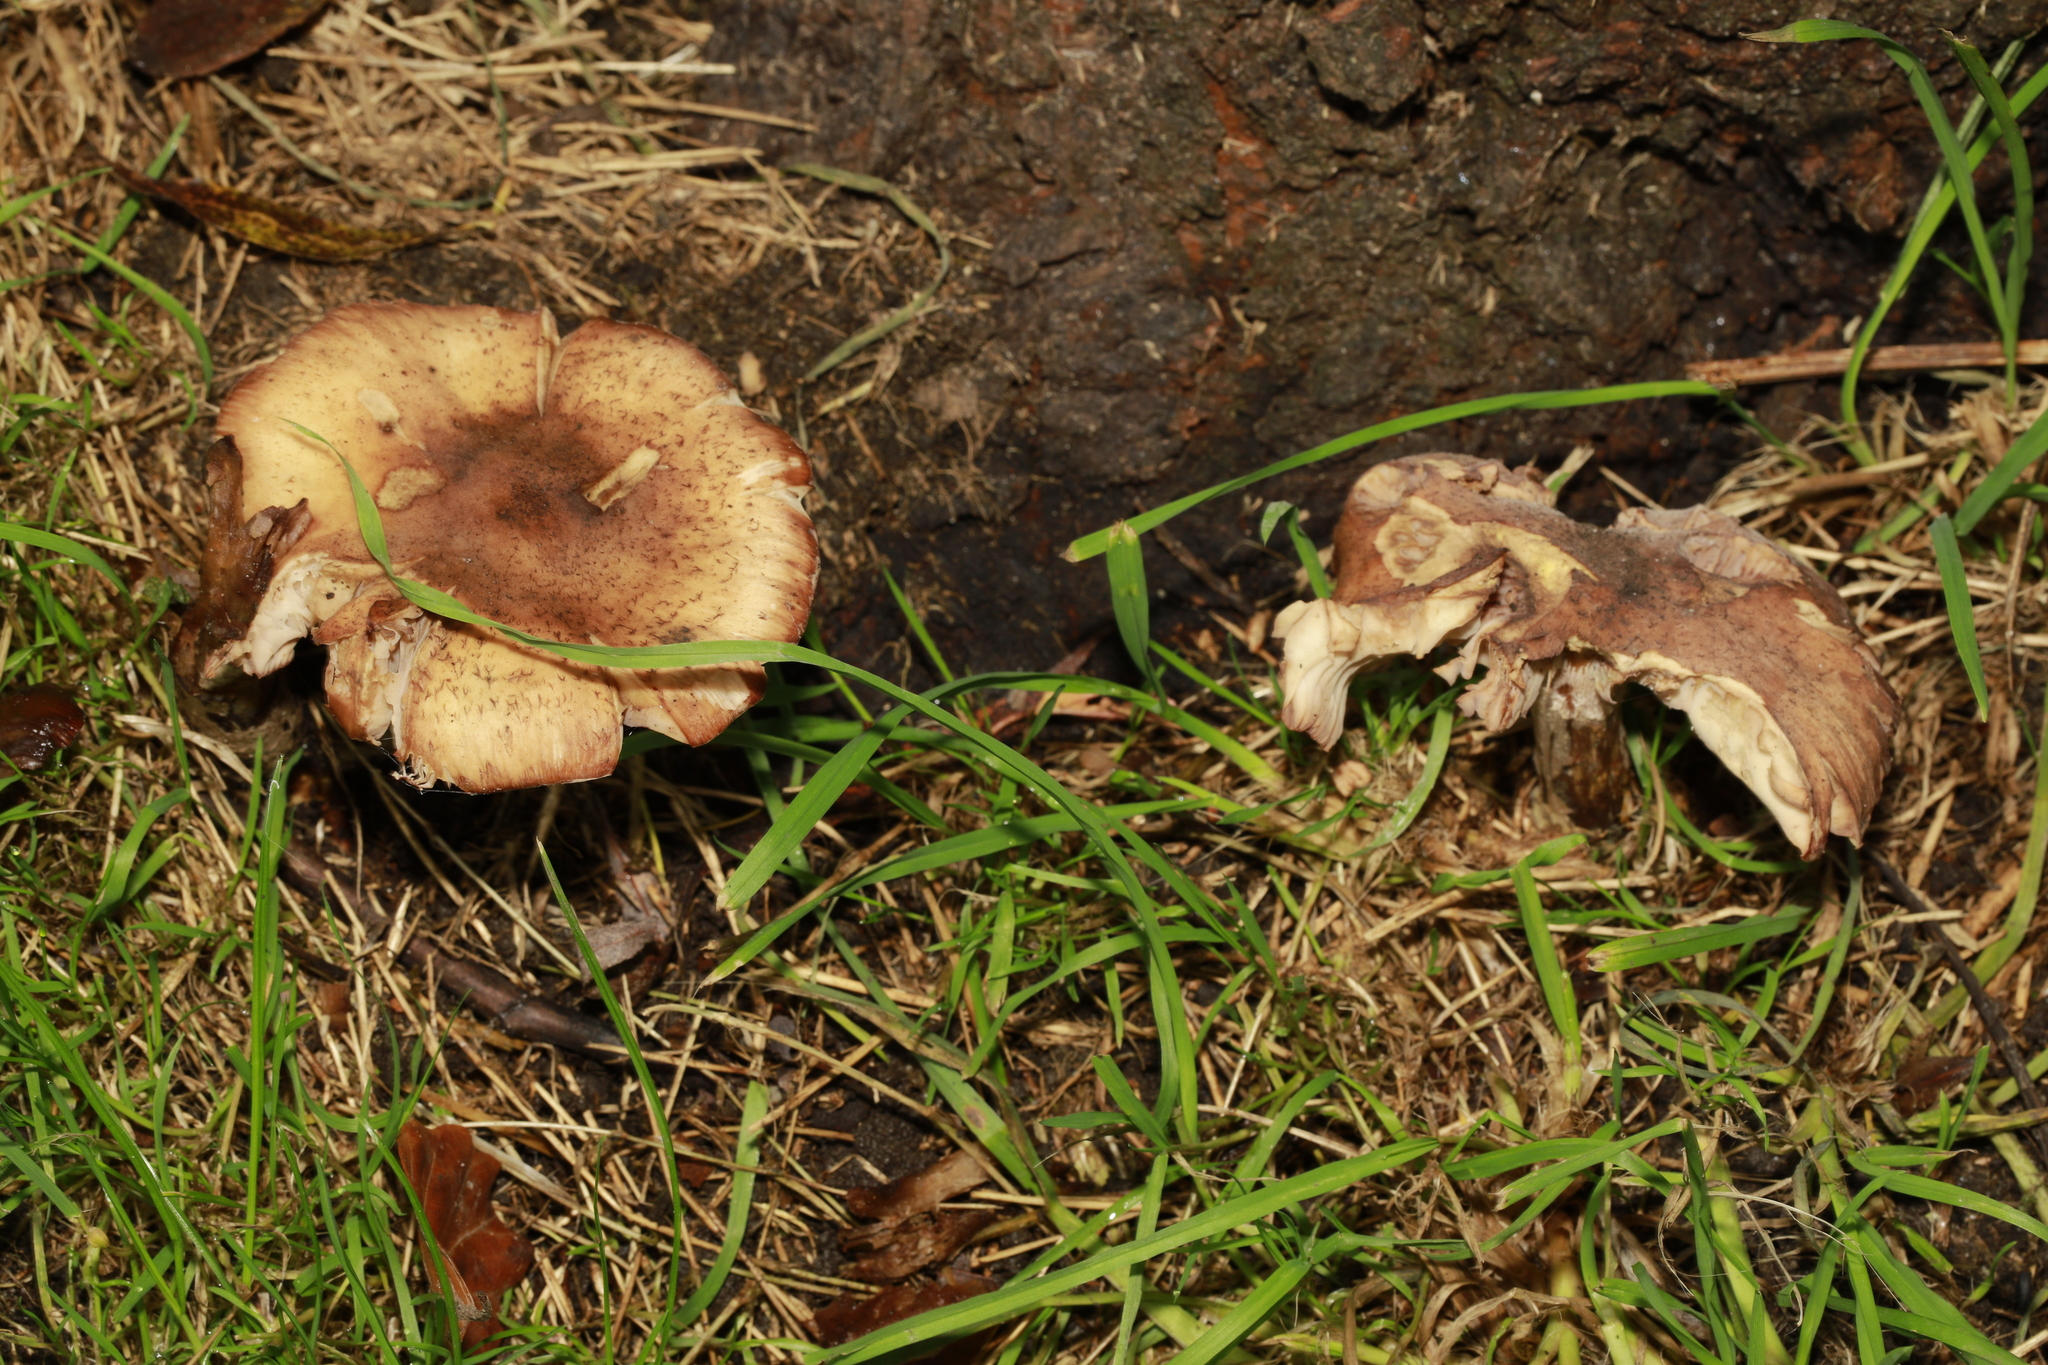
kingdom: Fungi
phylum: Basidiomycota
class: Agaricomycetes
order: Agaricales
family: Physalacriaceae
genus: Armillaria
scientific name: Armillaria mellea
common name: Honey fungus
